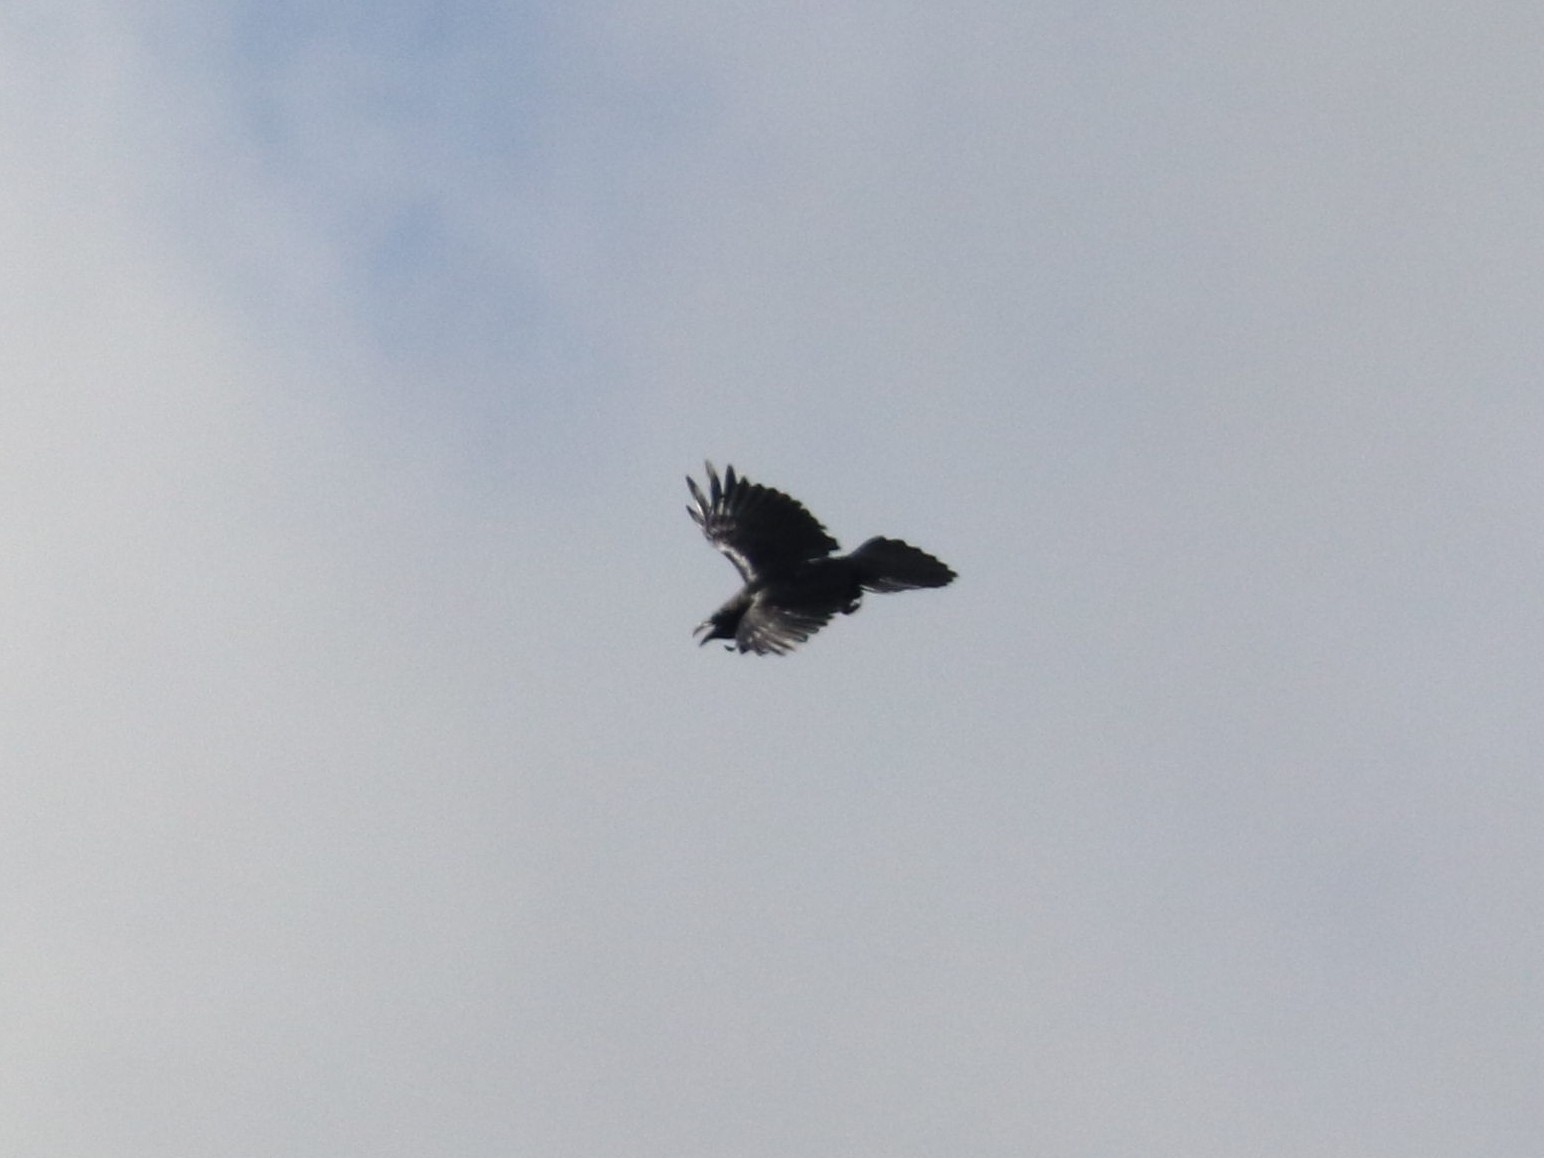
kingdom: Animalia
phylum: Chordata
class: Aves
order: Passeriformes
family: Corvidae
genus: Corvus
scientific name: Corvus corax
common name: Common raven
